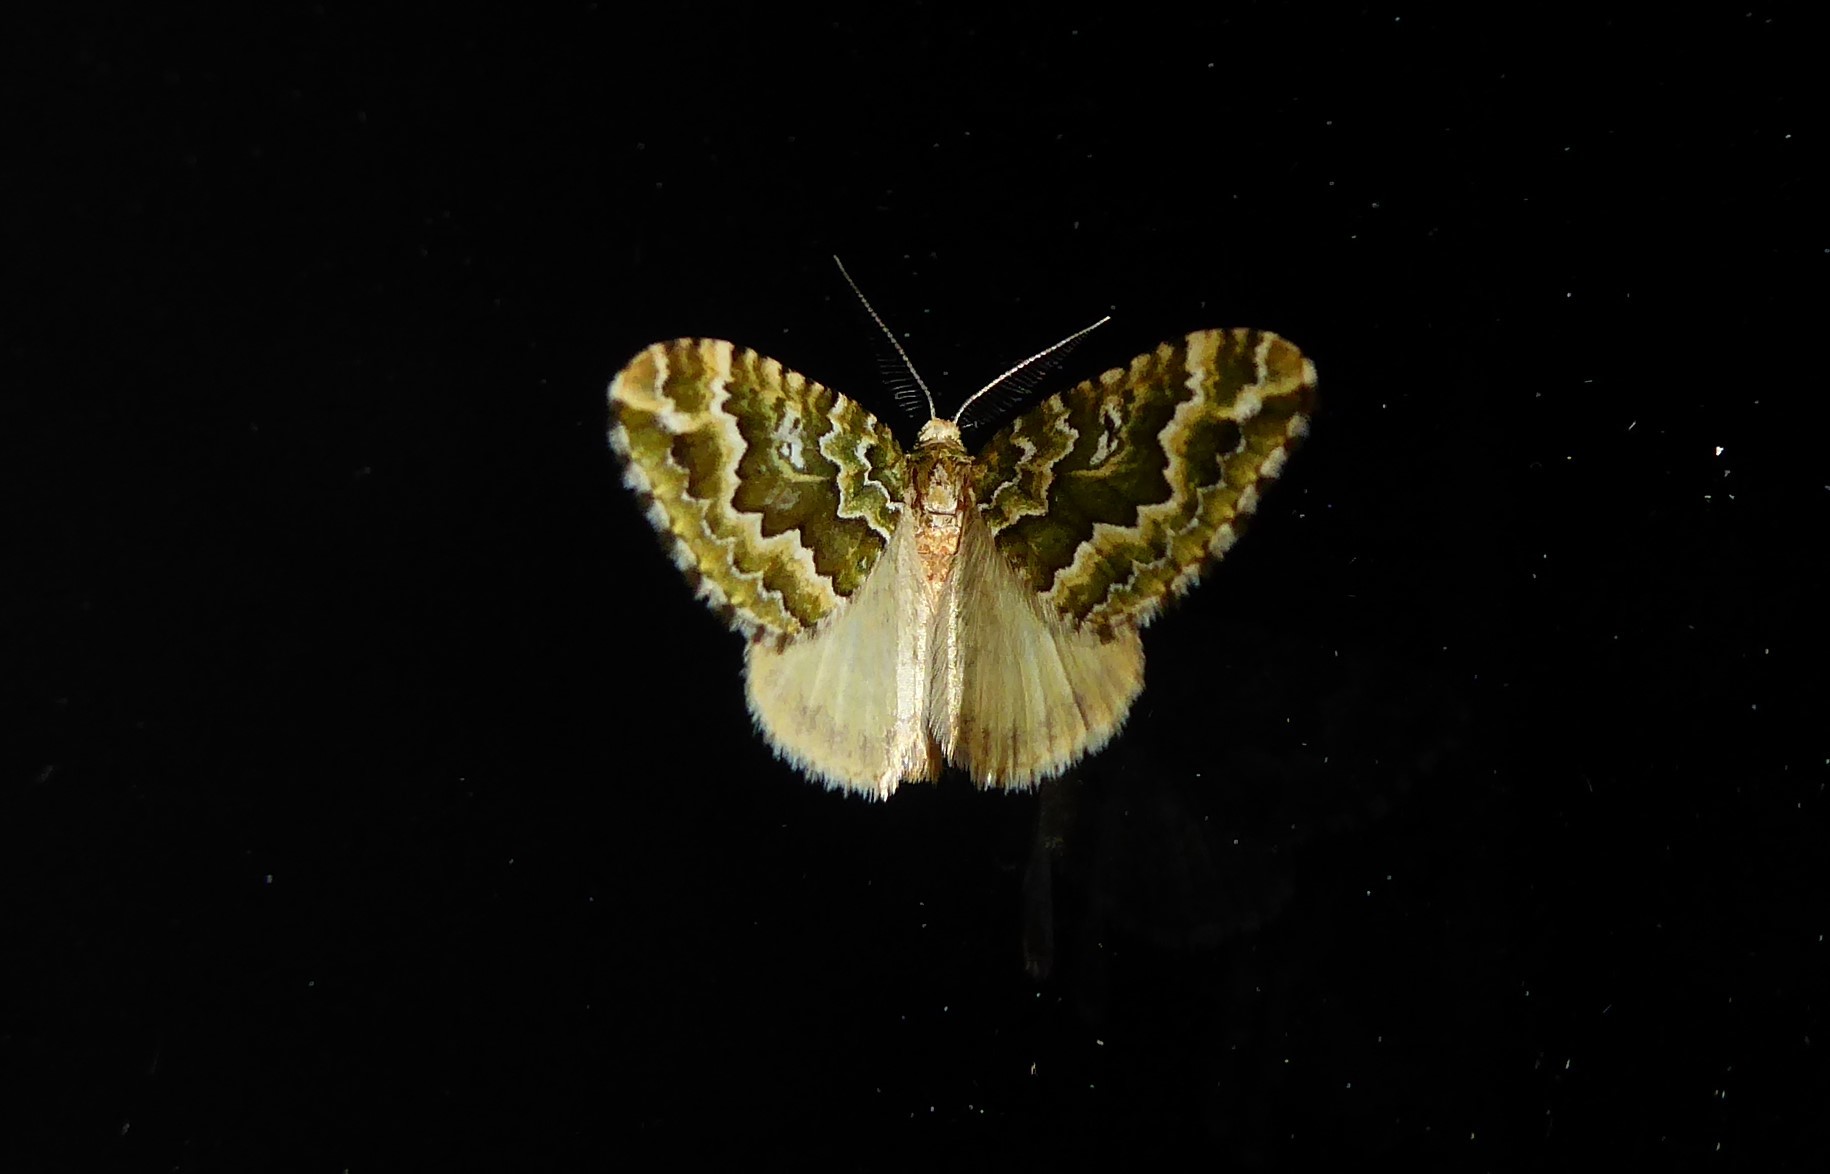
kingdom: Animalia
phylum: Arthropoda
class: Insecta
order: Lepidoptera
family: Geometridae
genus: Asaphodes
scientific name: Asaphodes beata
